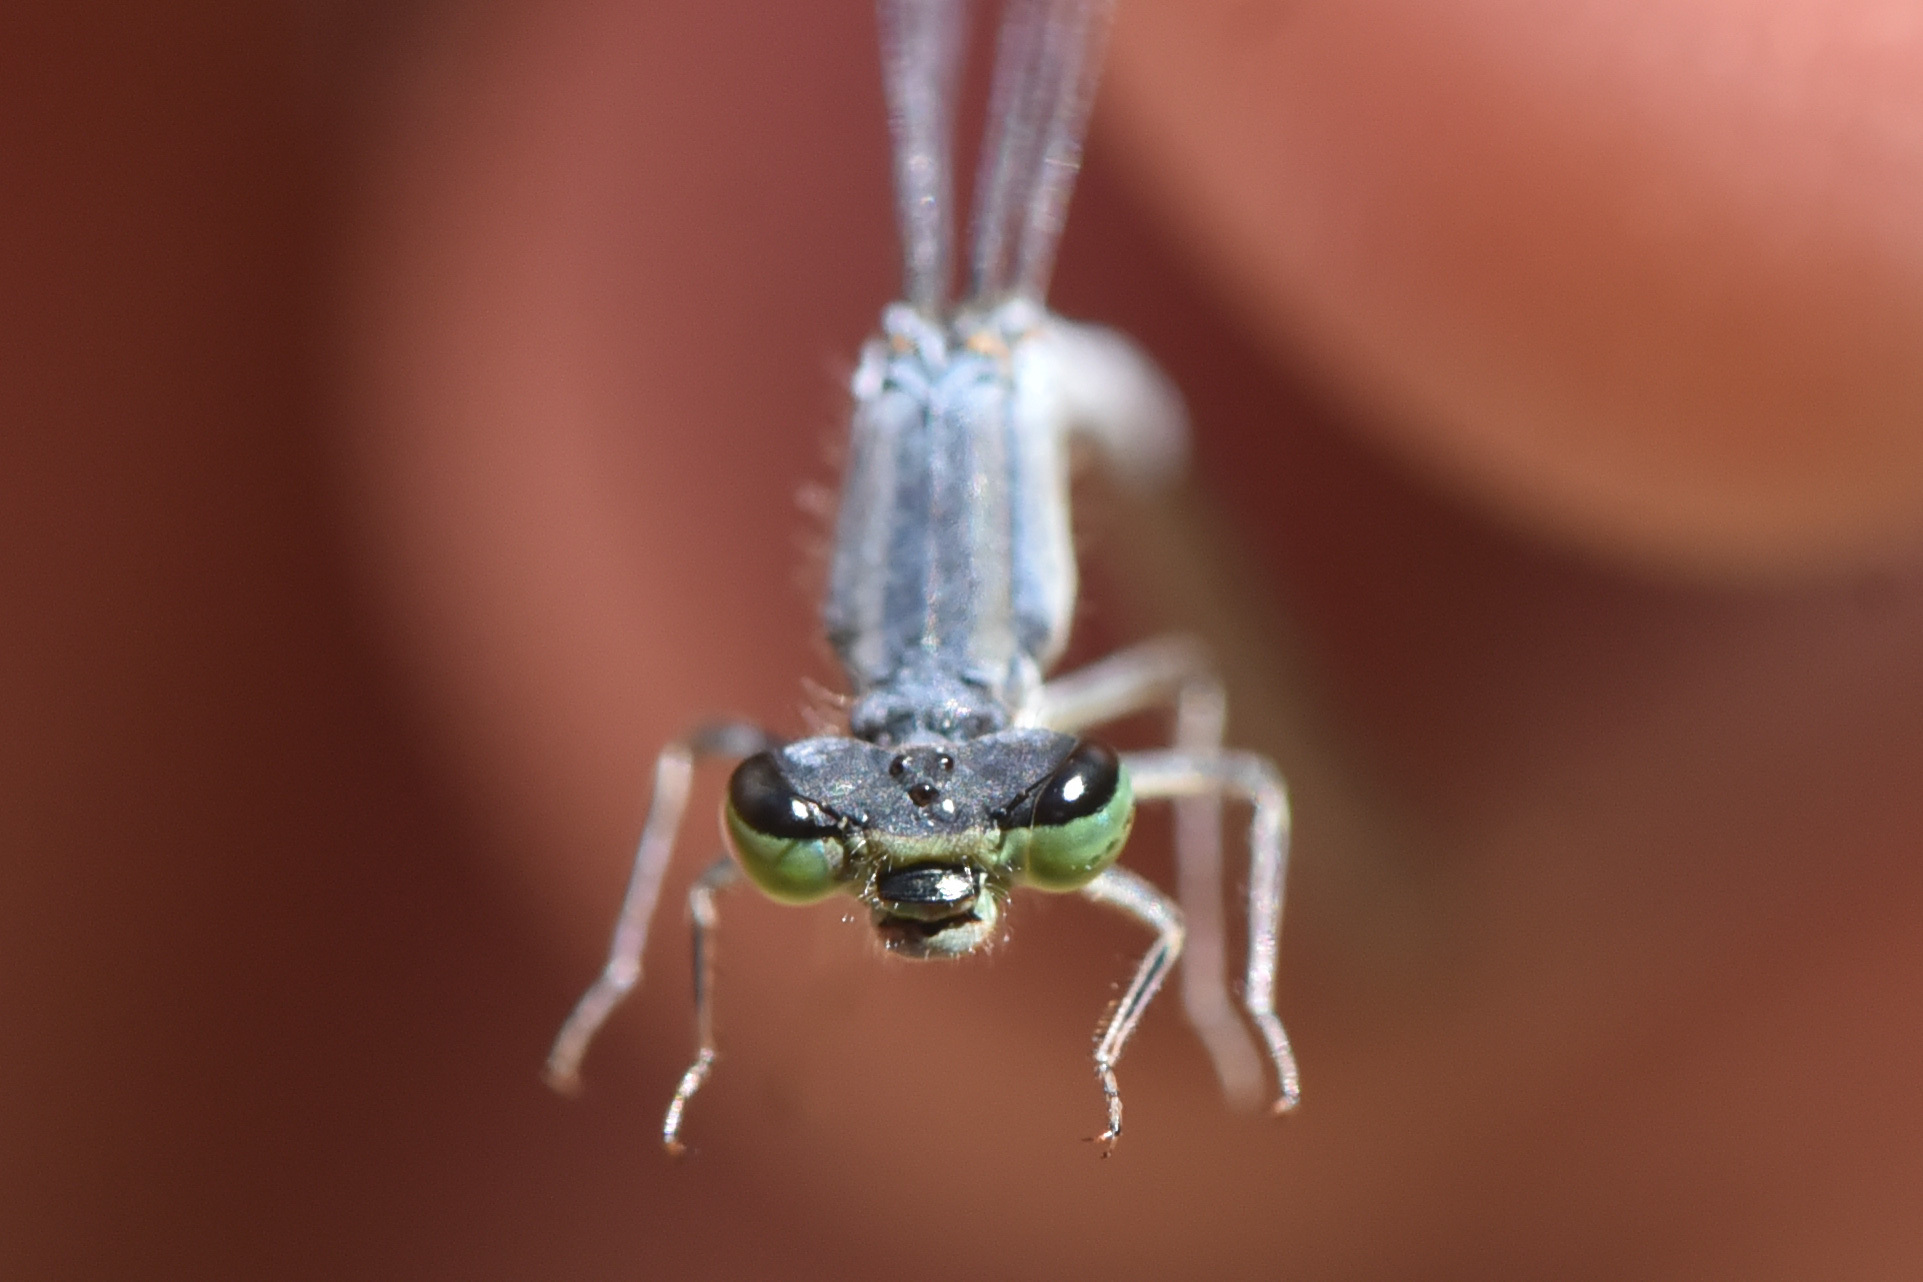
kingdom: Animalia
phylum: Arthropoda
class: Insecta
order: Odonata
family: Coenagrionidae
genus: Ischnura
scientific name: Ischnura perparva
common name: Western forktail
